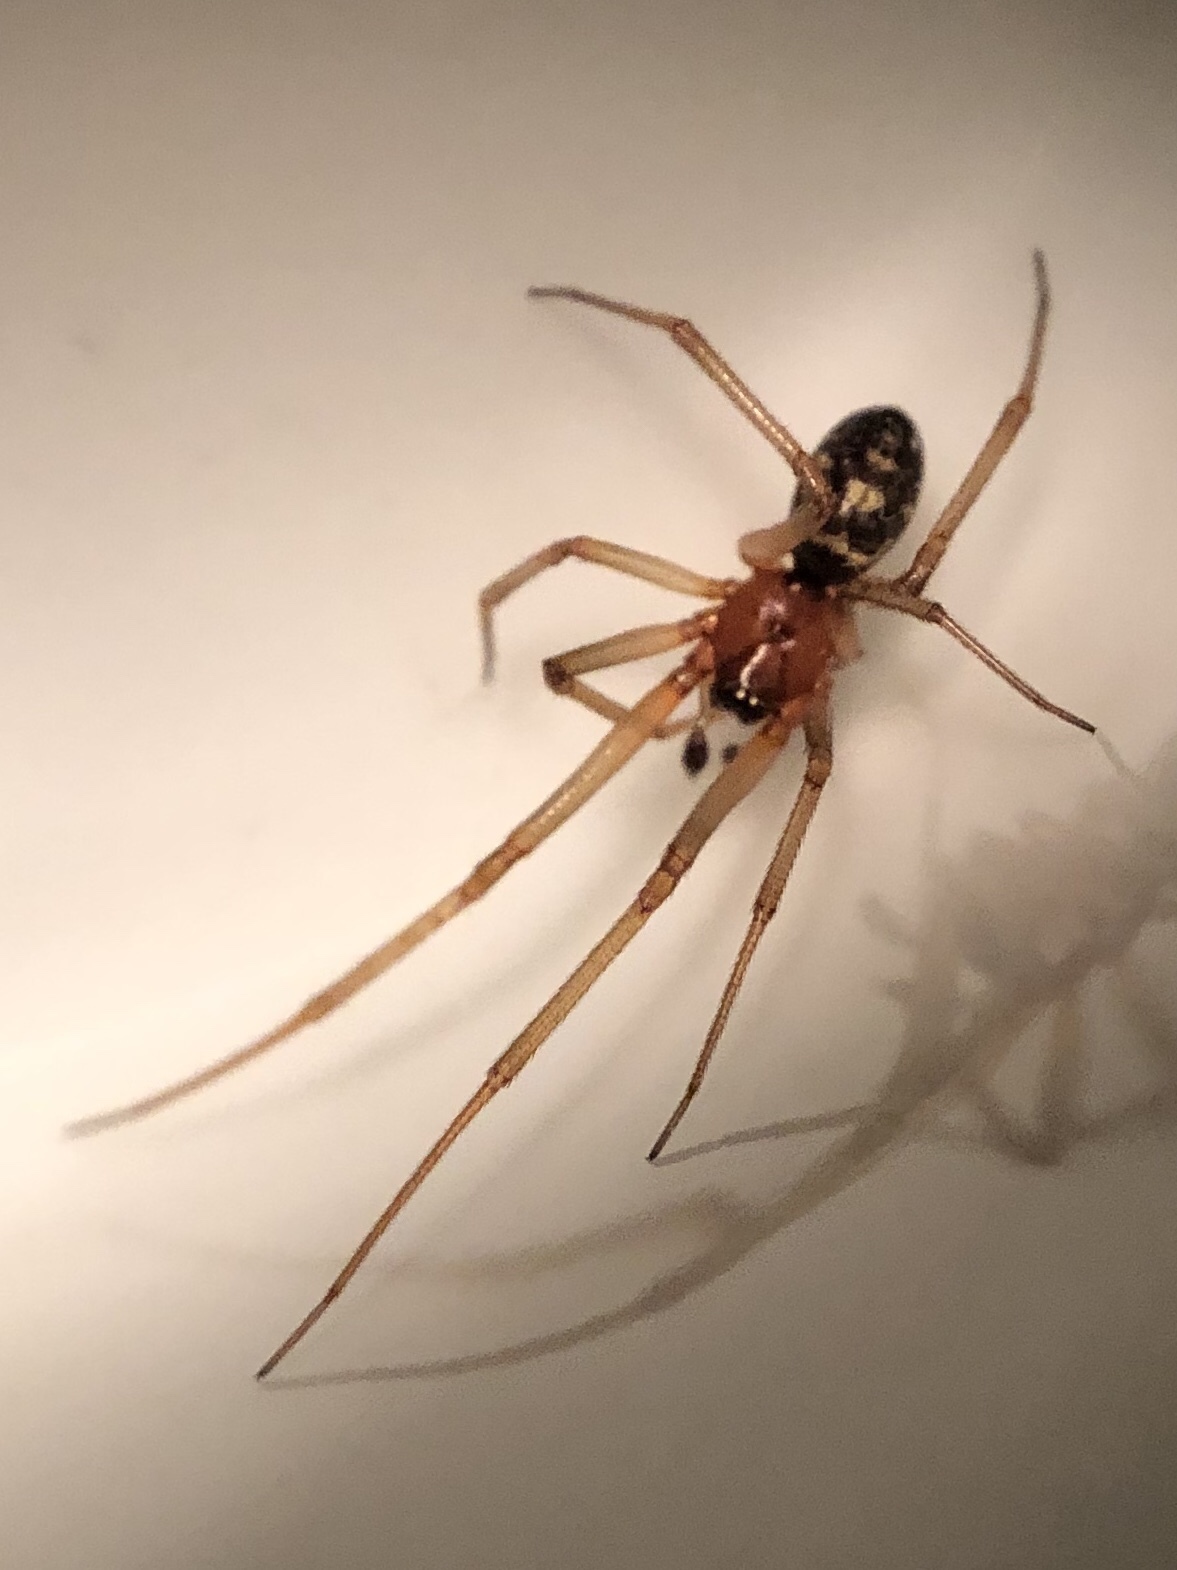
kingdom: Animalia
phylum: Arthropoda
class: Arachnida
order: Araneae
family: Theridiidae
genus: Steatoda
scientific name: Steatoda grossa
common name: False black widow
